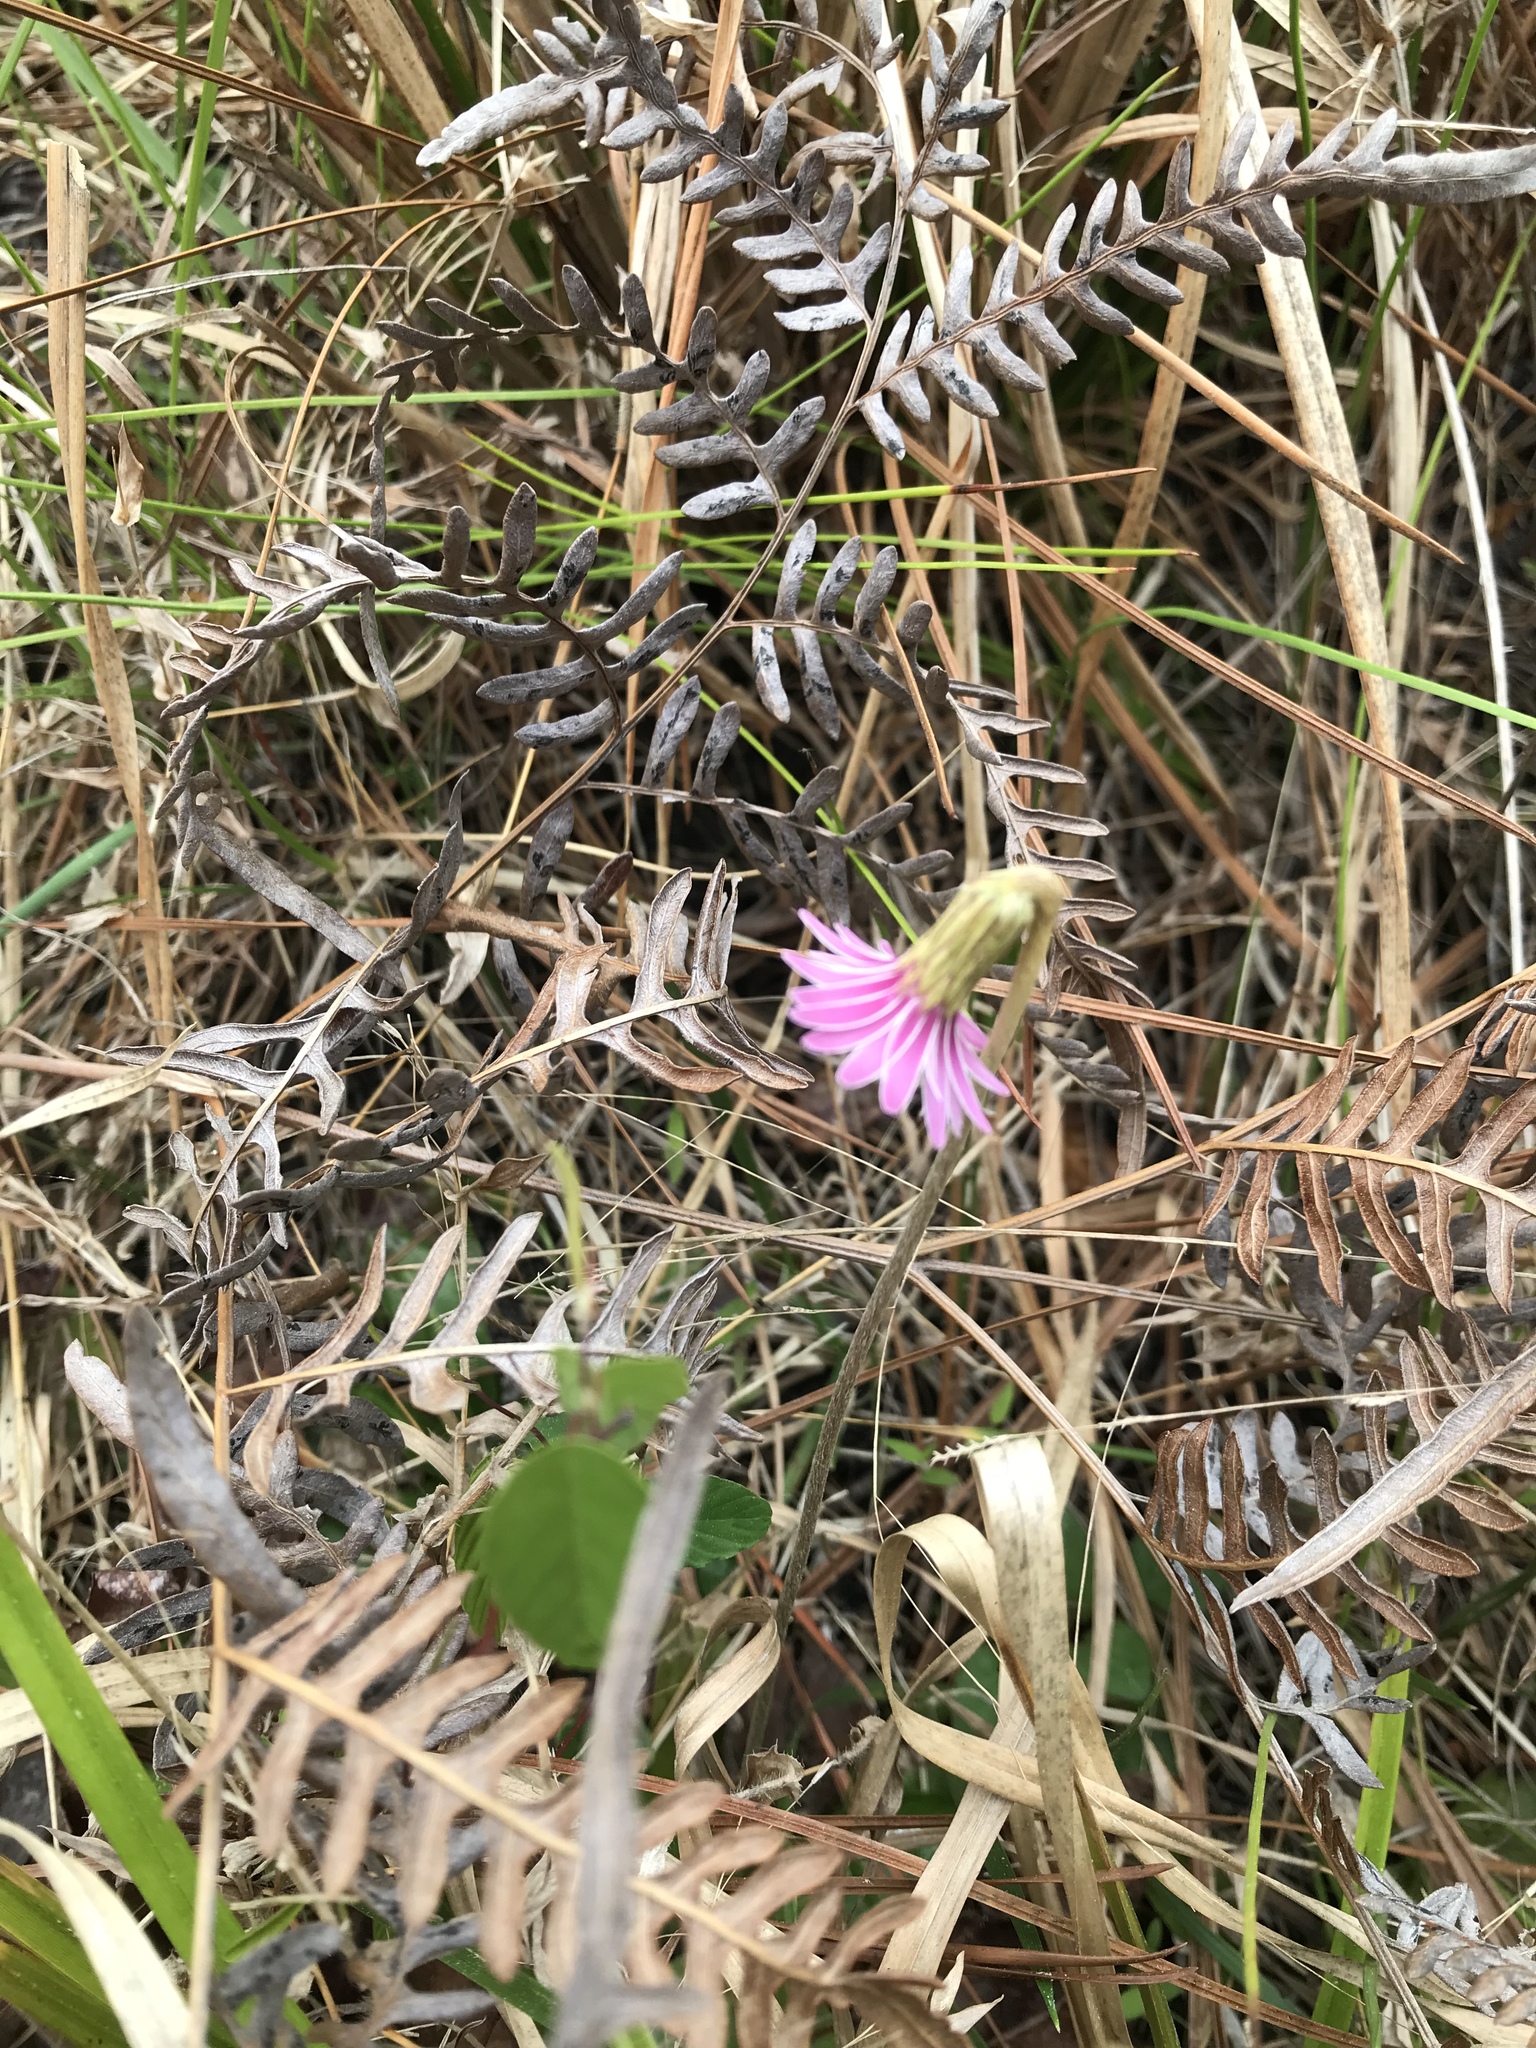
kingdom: Plantae
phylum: Tracheophyta
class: Magnoliopsida
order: Asterales
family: Asteraceae
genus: Chaptalia
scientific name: Chaptalia tomentosa
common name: Woolly sunbonnet
